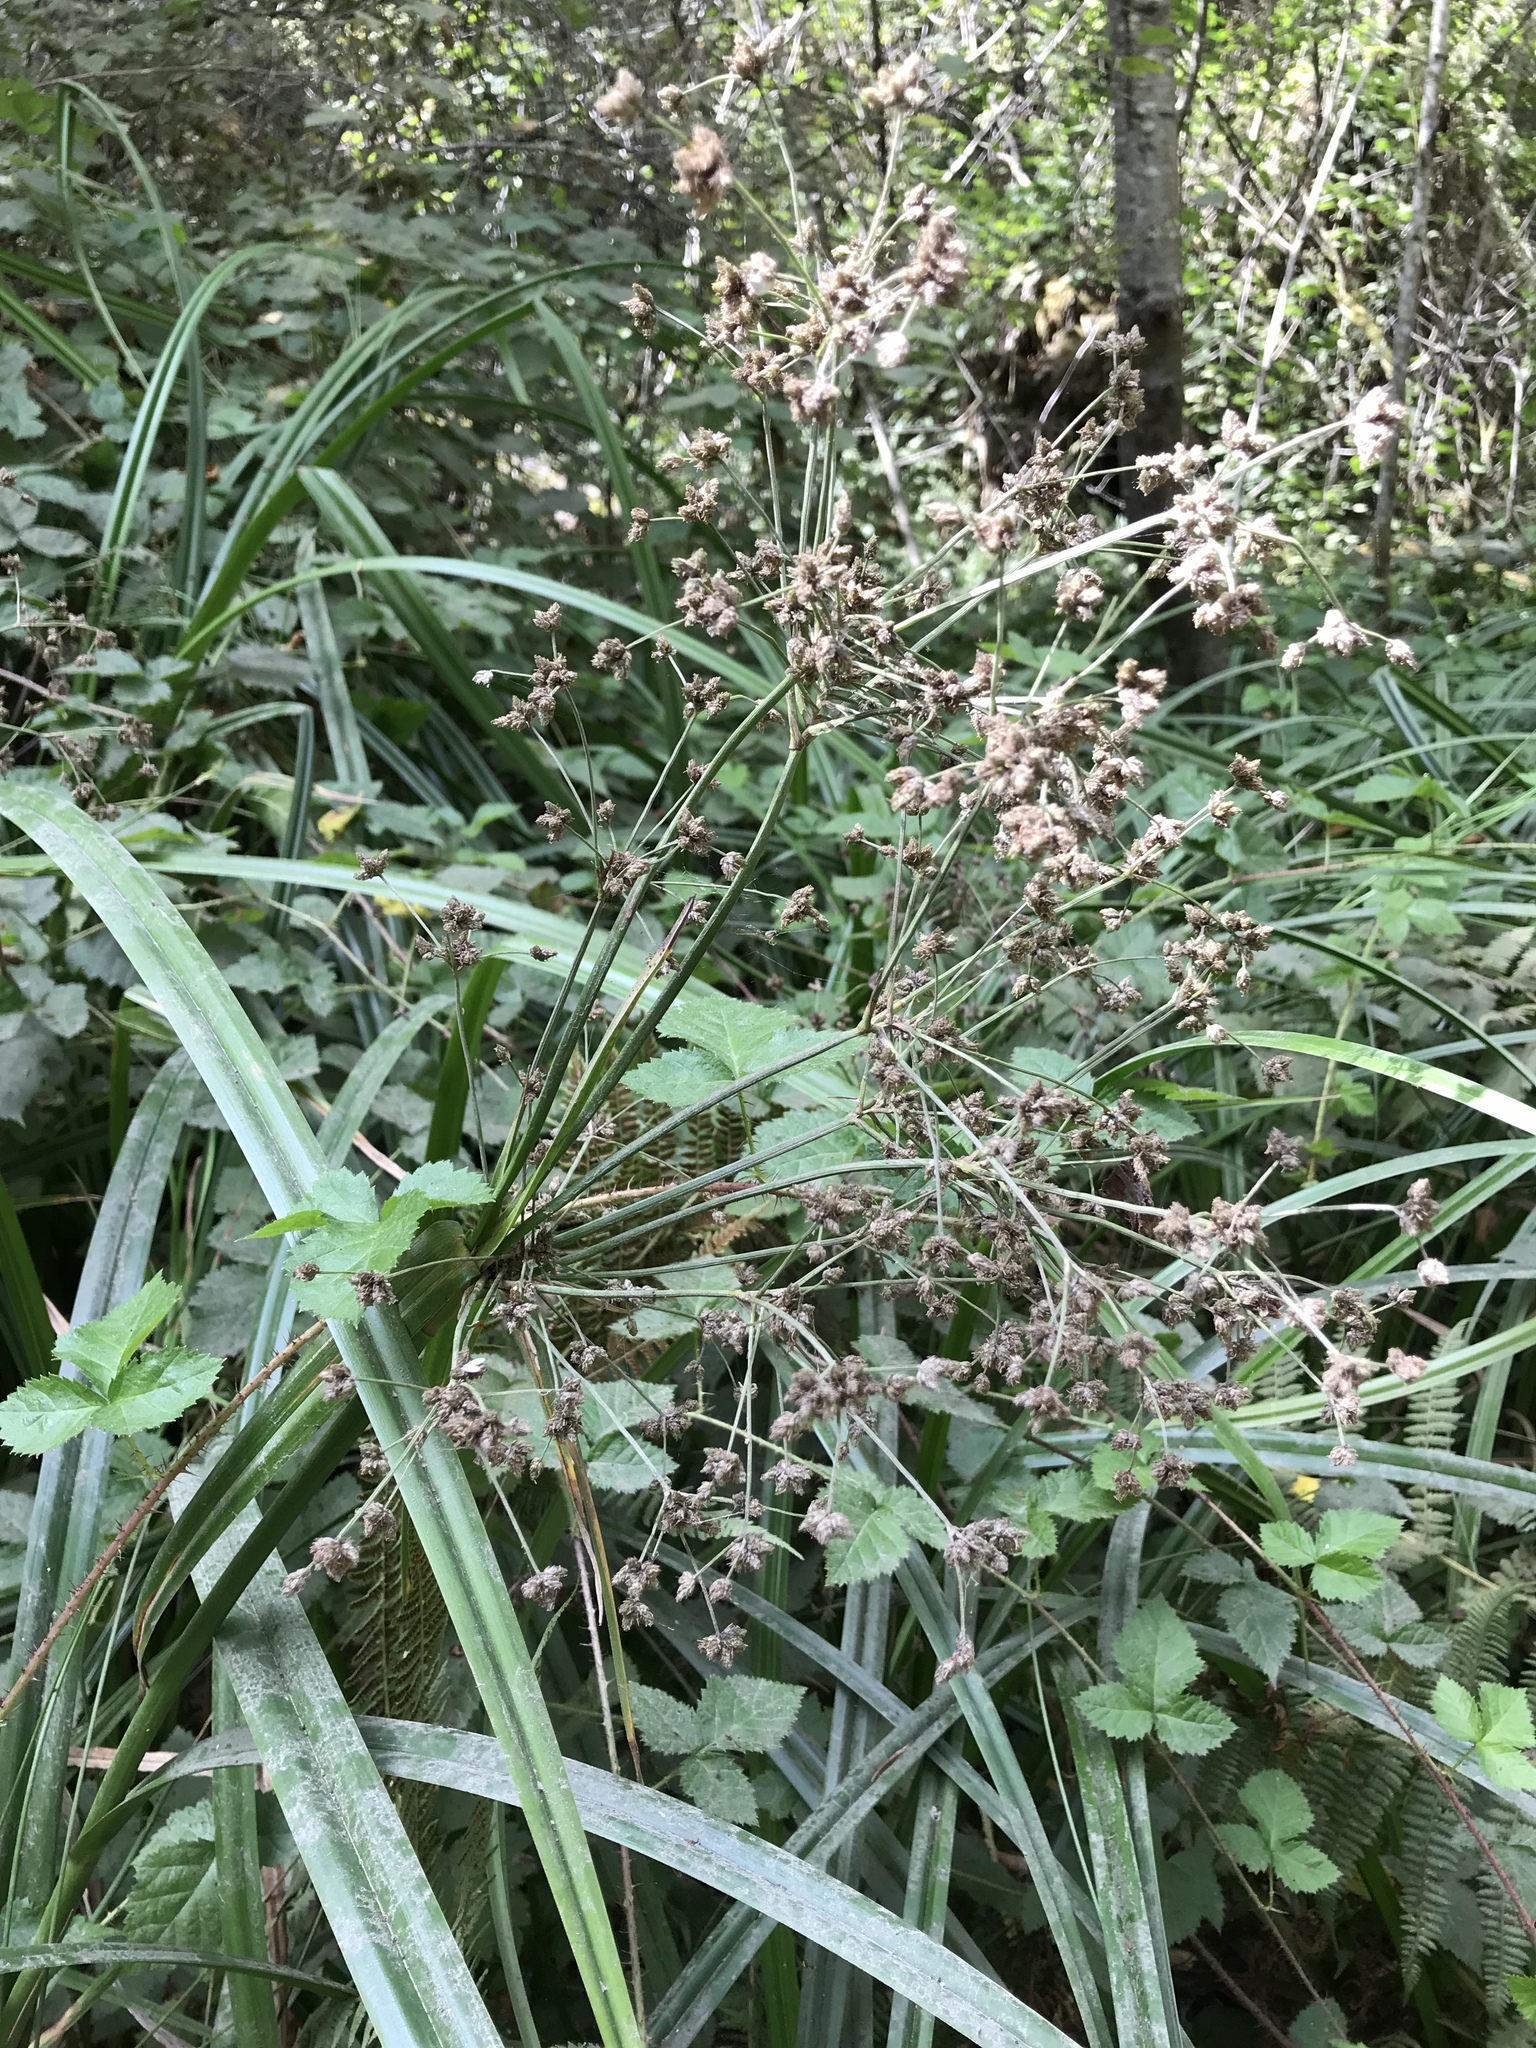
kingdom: Plantae
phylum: Tracheophyta
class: Liliopsida
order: Poales
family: Cyperaceae
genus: Scirpus
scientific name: Scirpus microcarpus
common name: Panicled bulrush
